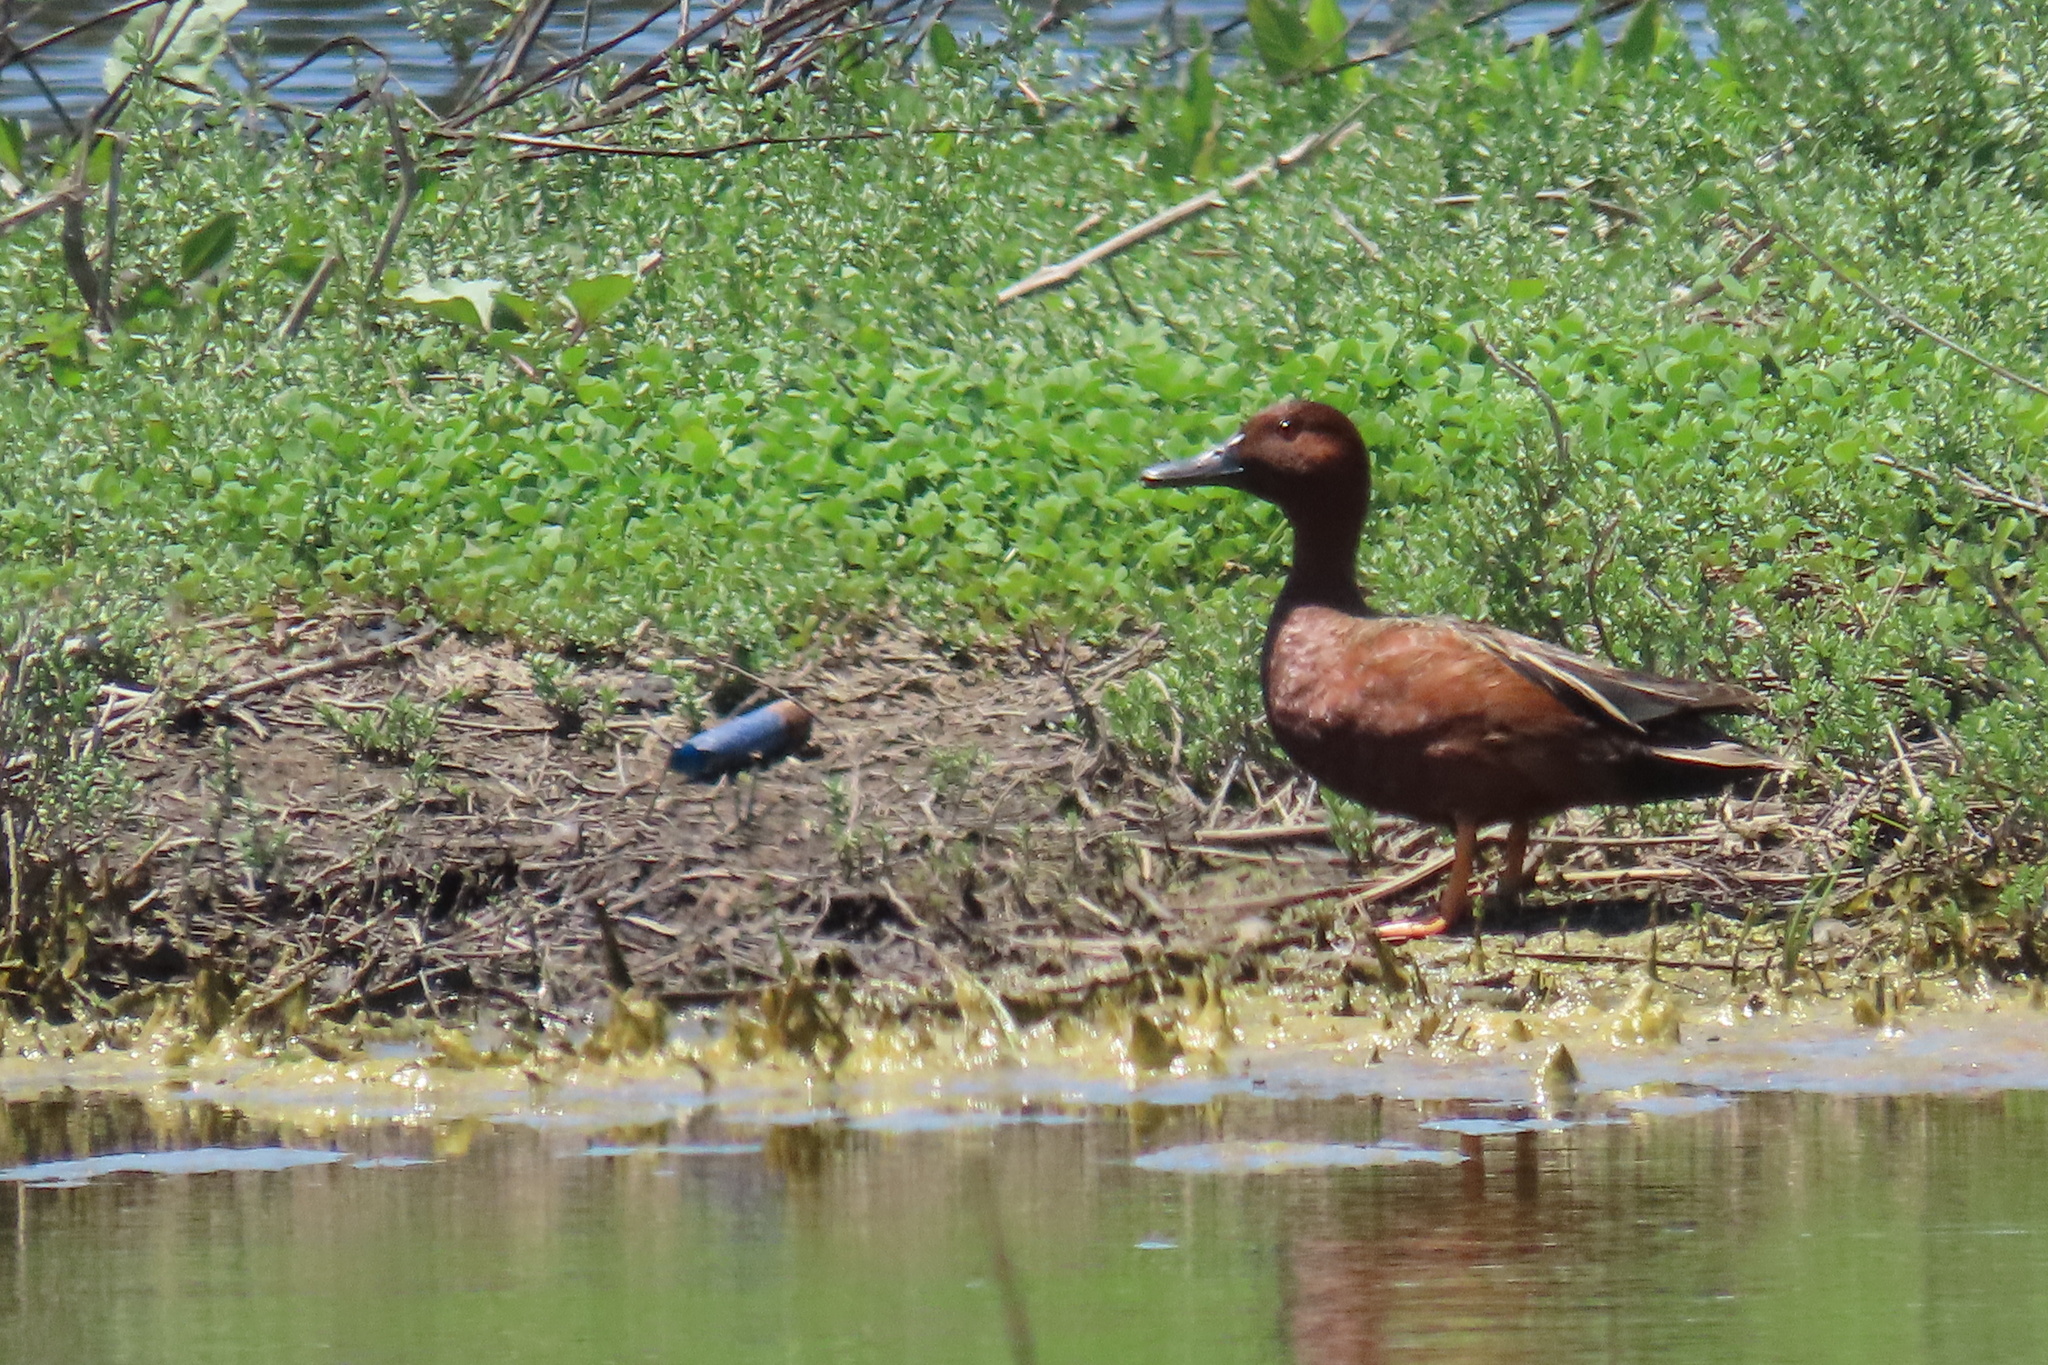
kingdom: Animalia
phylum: Chordata
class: Aves
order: Anseriformes
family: Anatidae
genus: Spatula
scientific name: Spatula cyanoptera
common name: Cinnamon teal
